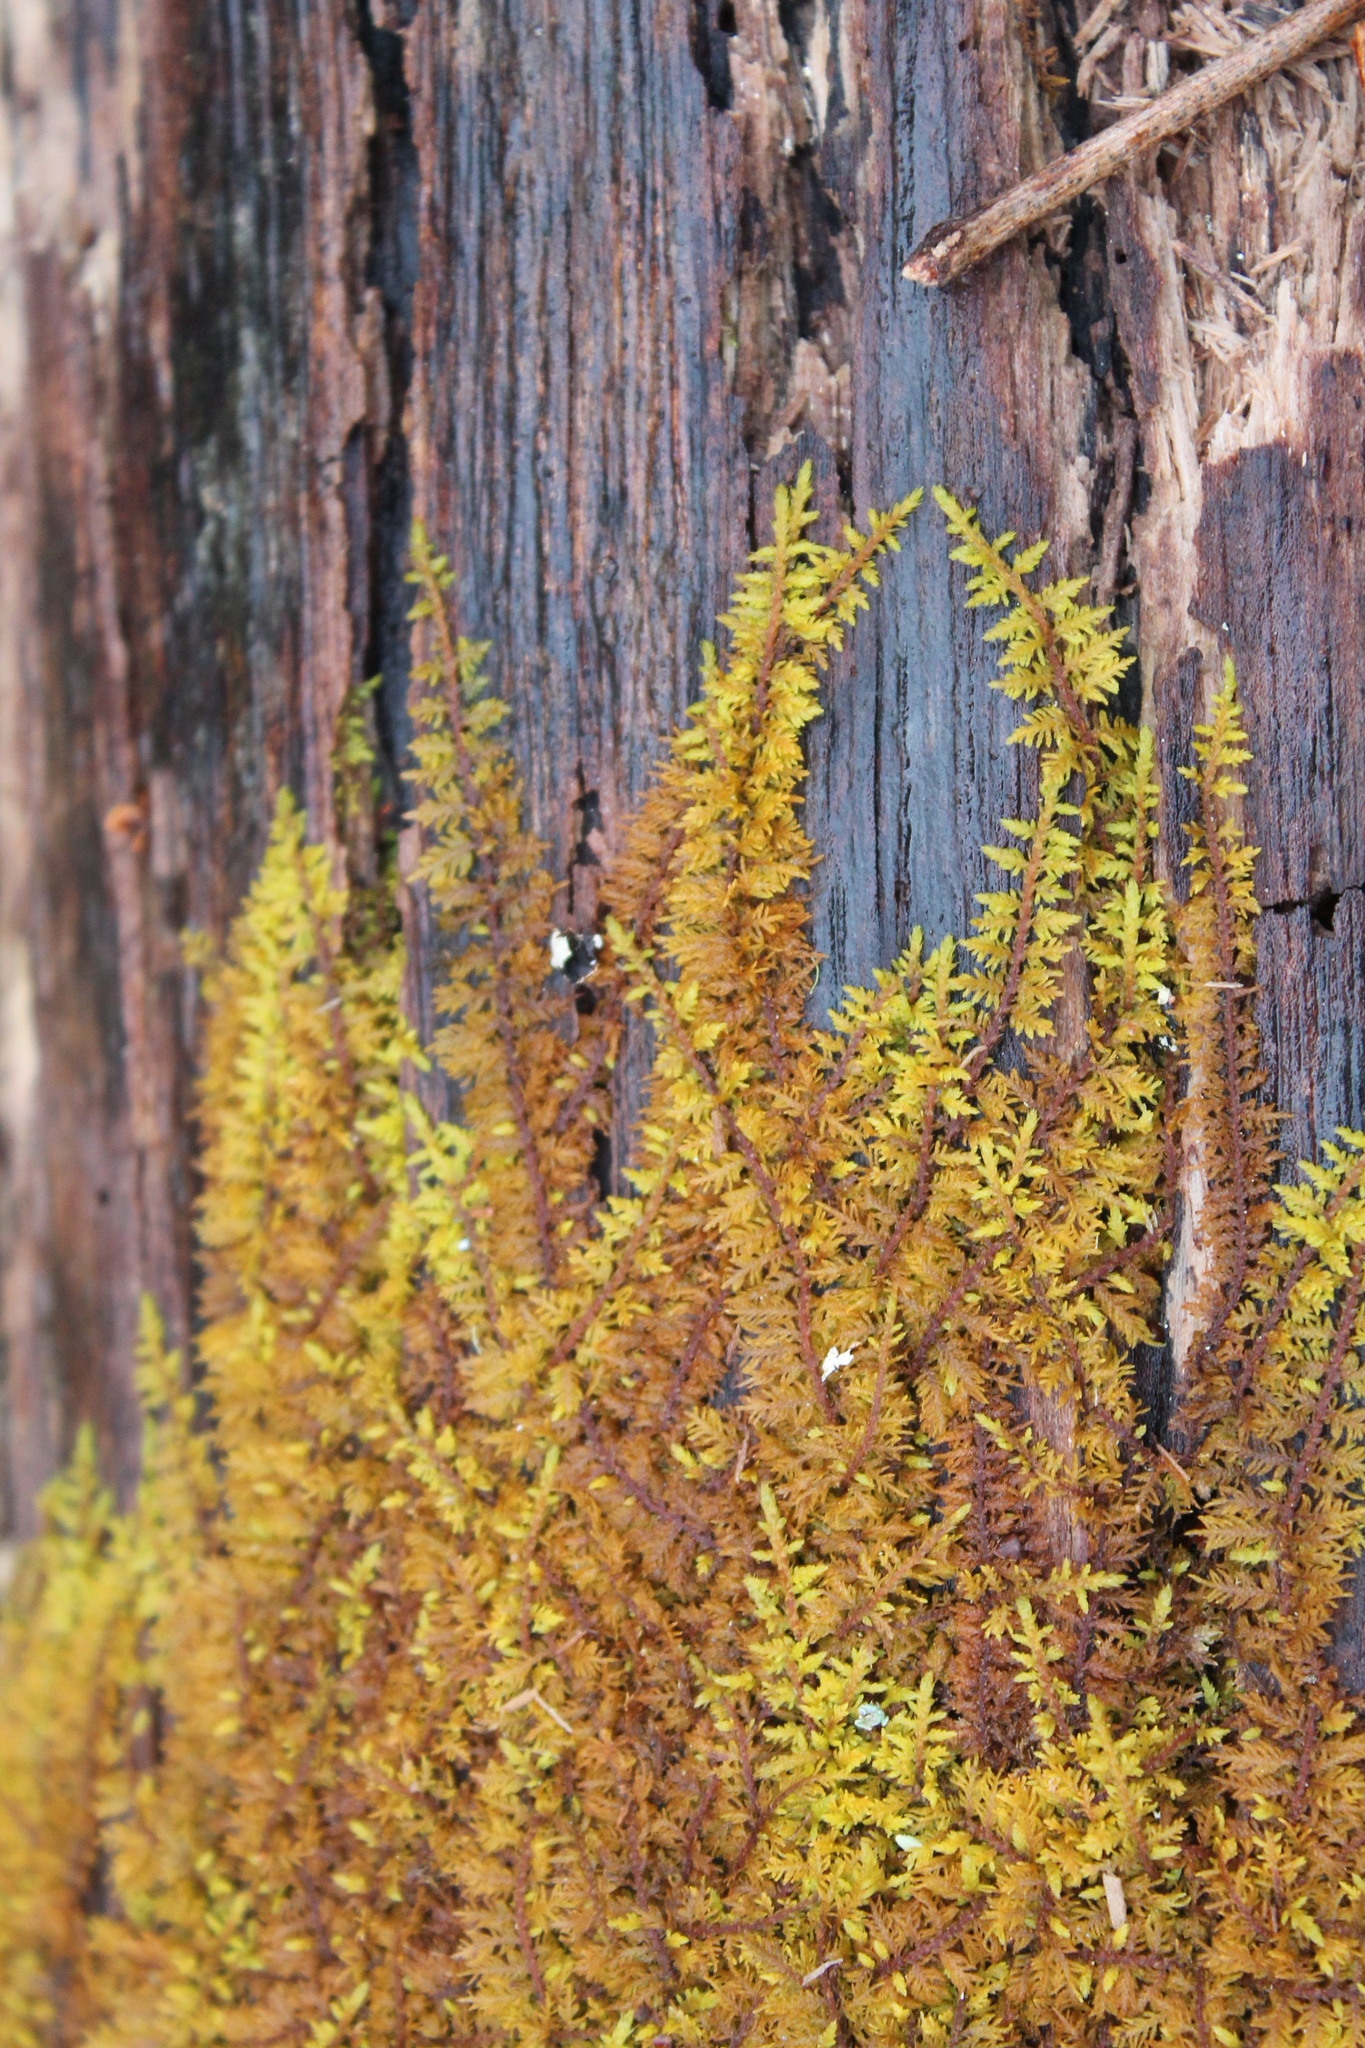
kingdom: Plantae
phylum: Bryophyta
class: Bryopsida
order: Hypnales
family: Thuidiaceae
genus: Thuidium
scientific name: Thuidium delicatulum
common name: Delicate fern moss
